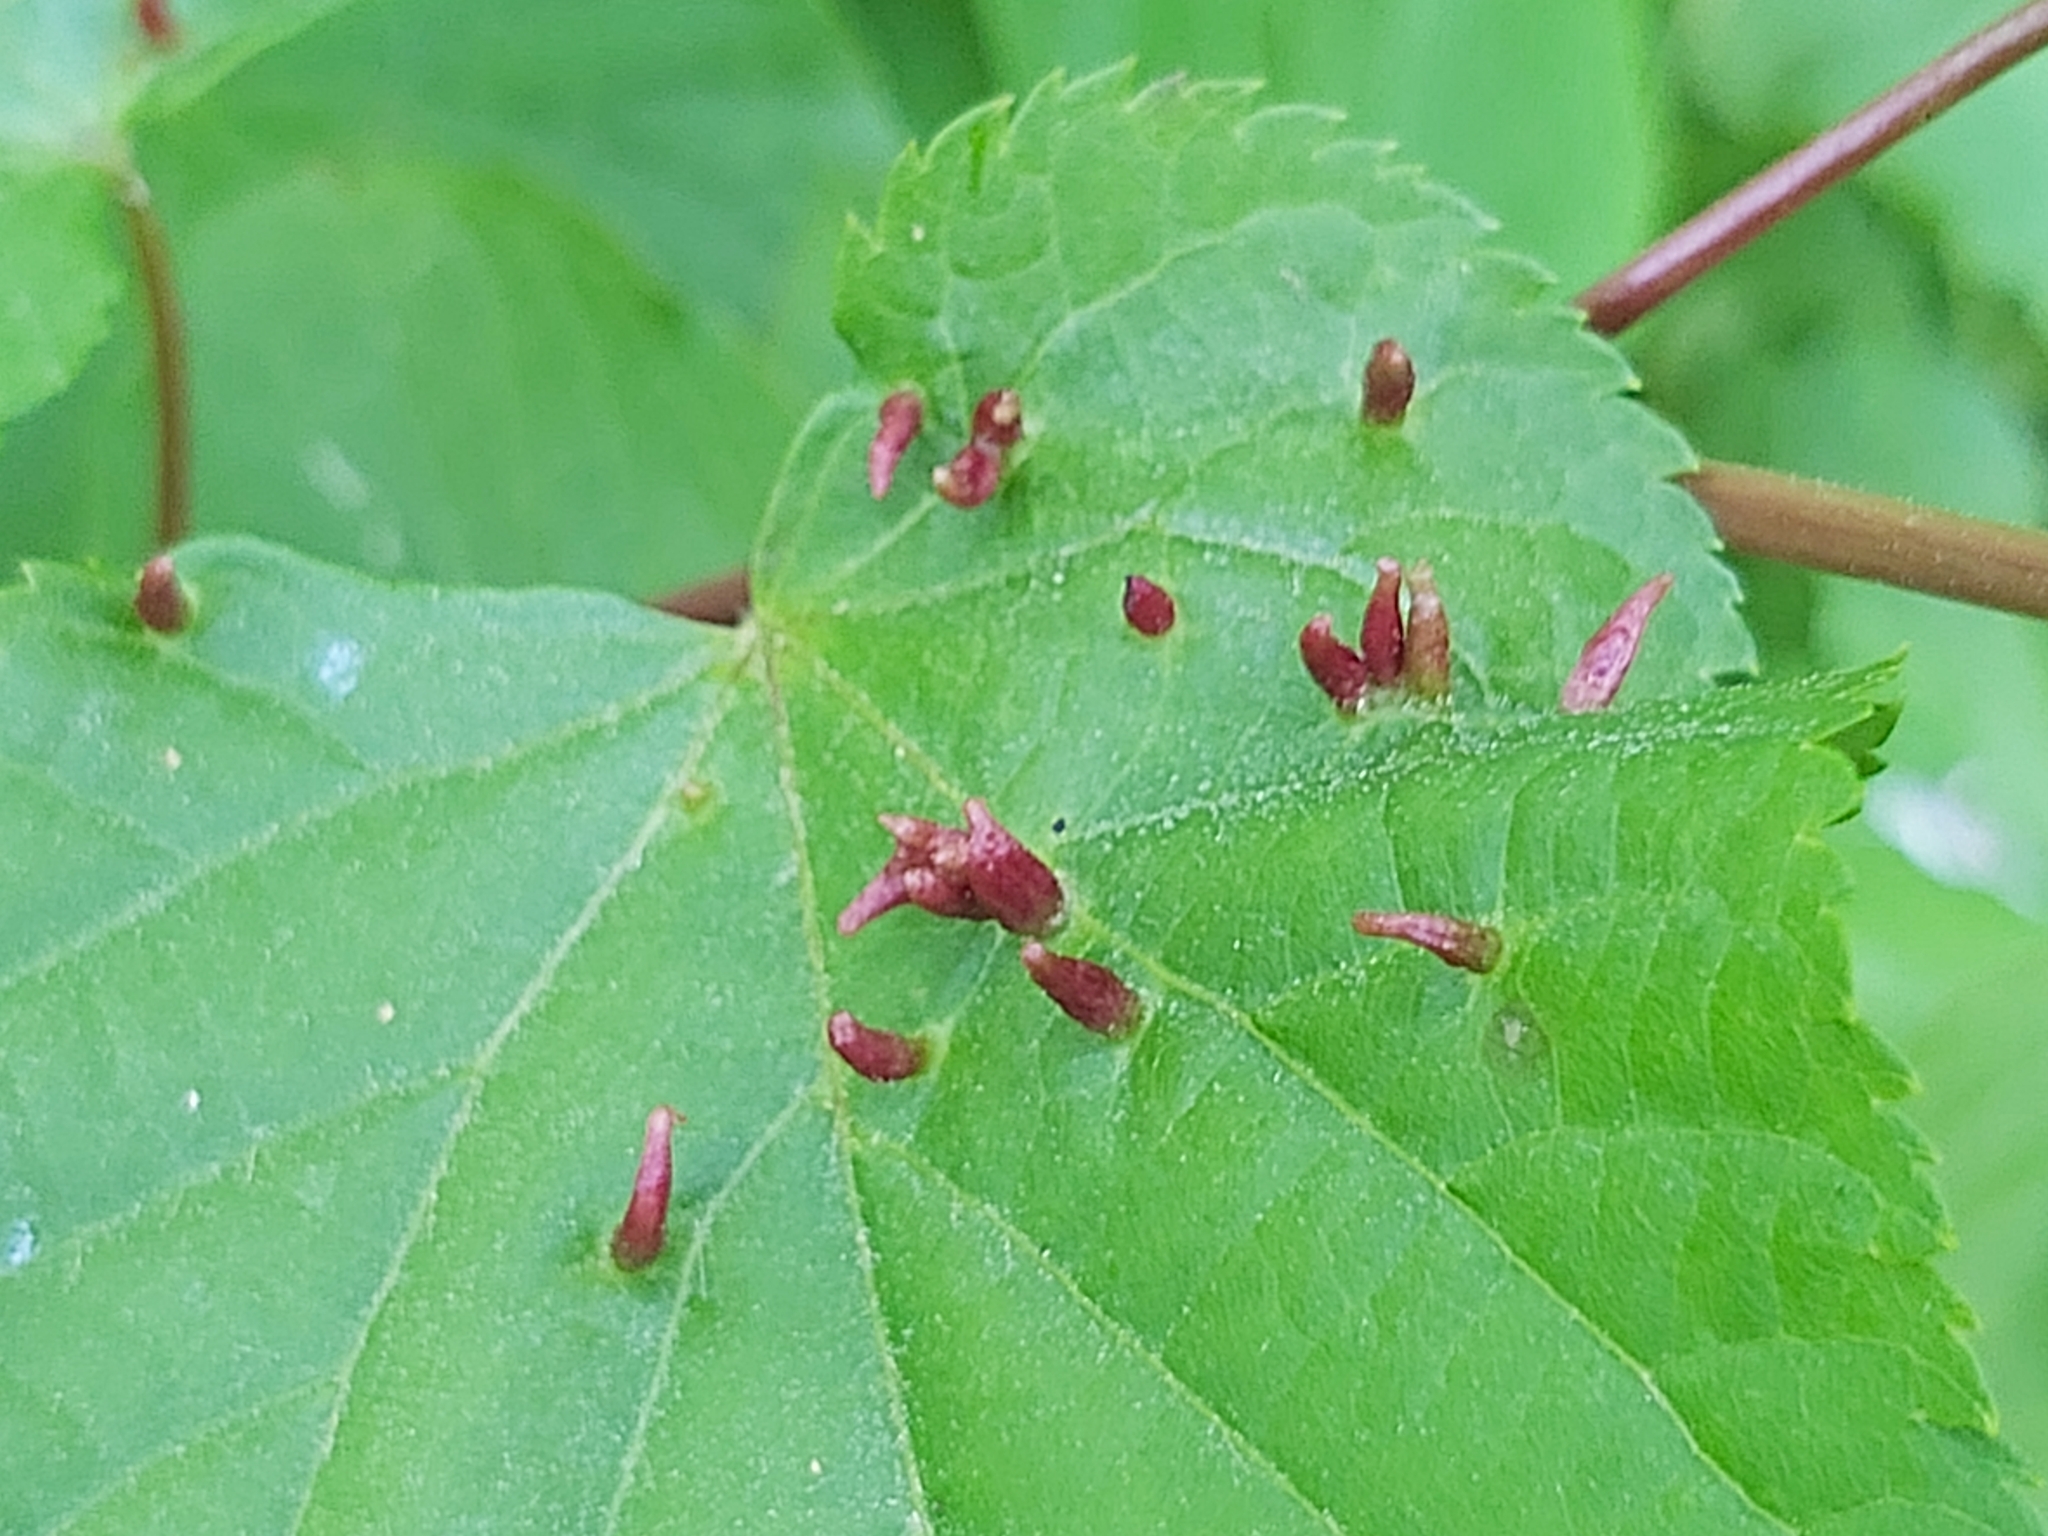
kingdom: Animalia
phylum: Arthropoda
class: Arachnida
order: Trombidiformes
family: Eriophyidae
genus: Eriophyes
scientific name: Eriophyes tiliae
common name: Red nail gall mite
